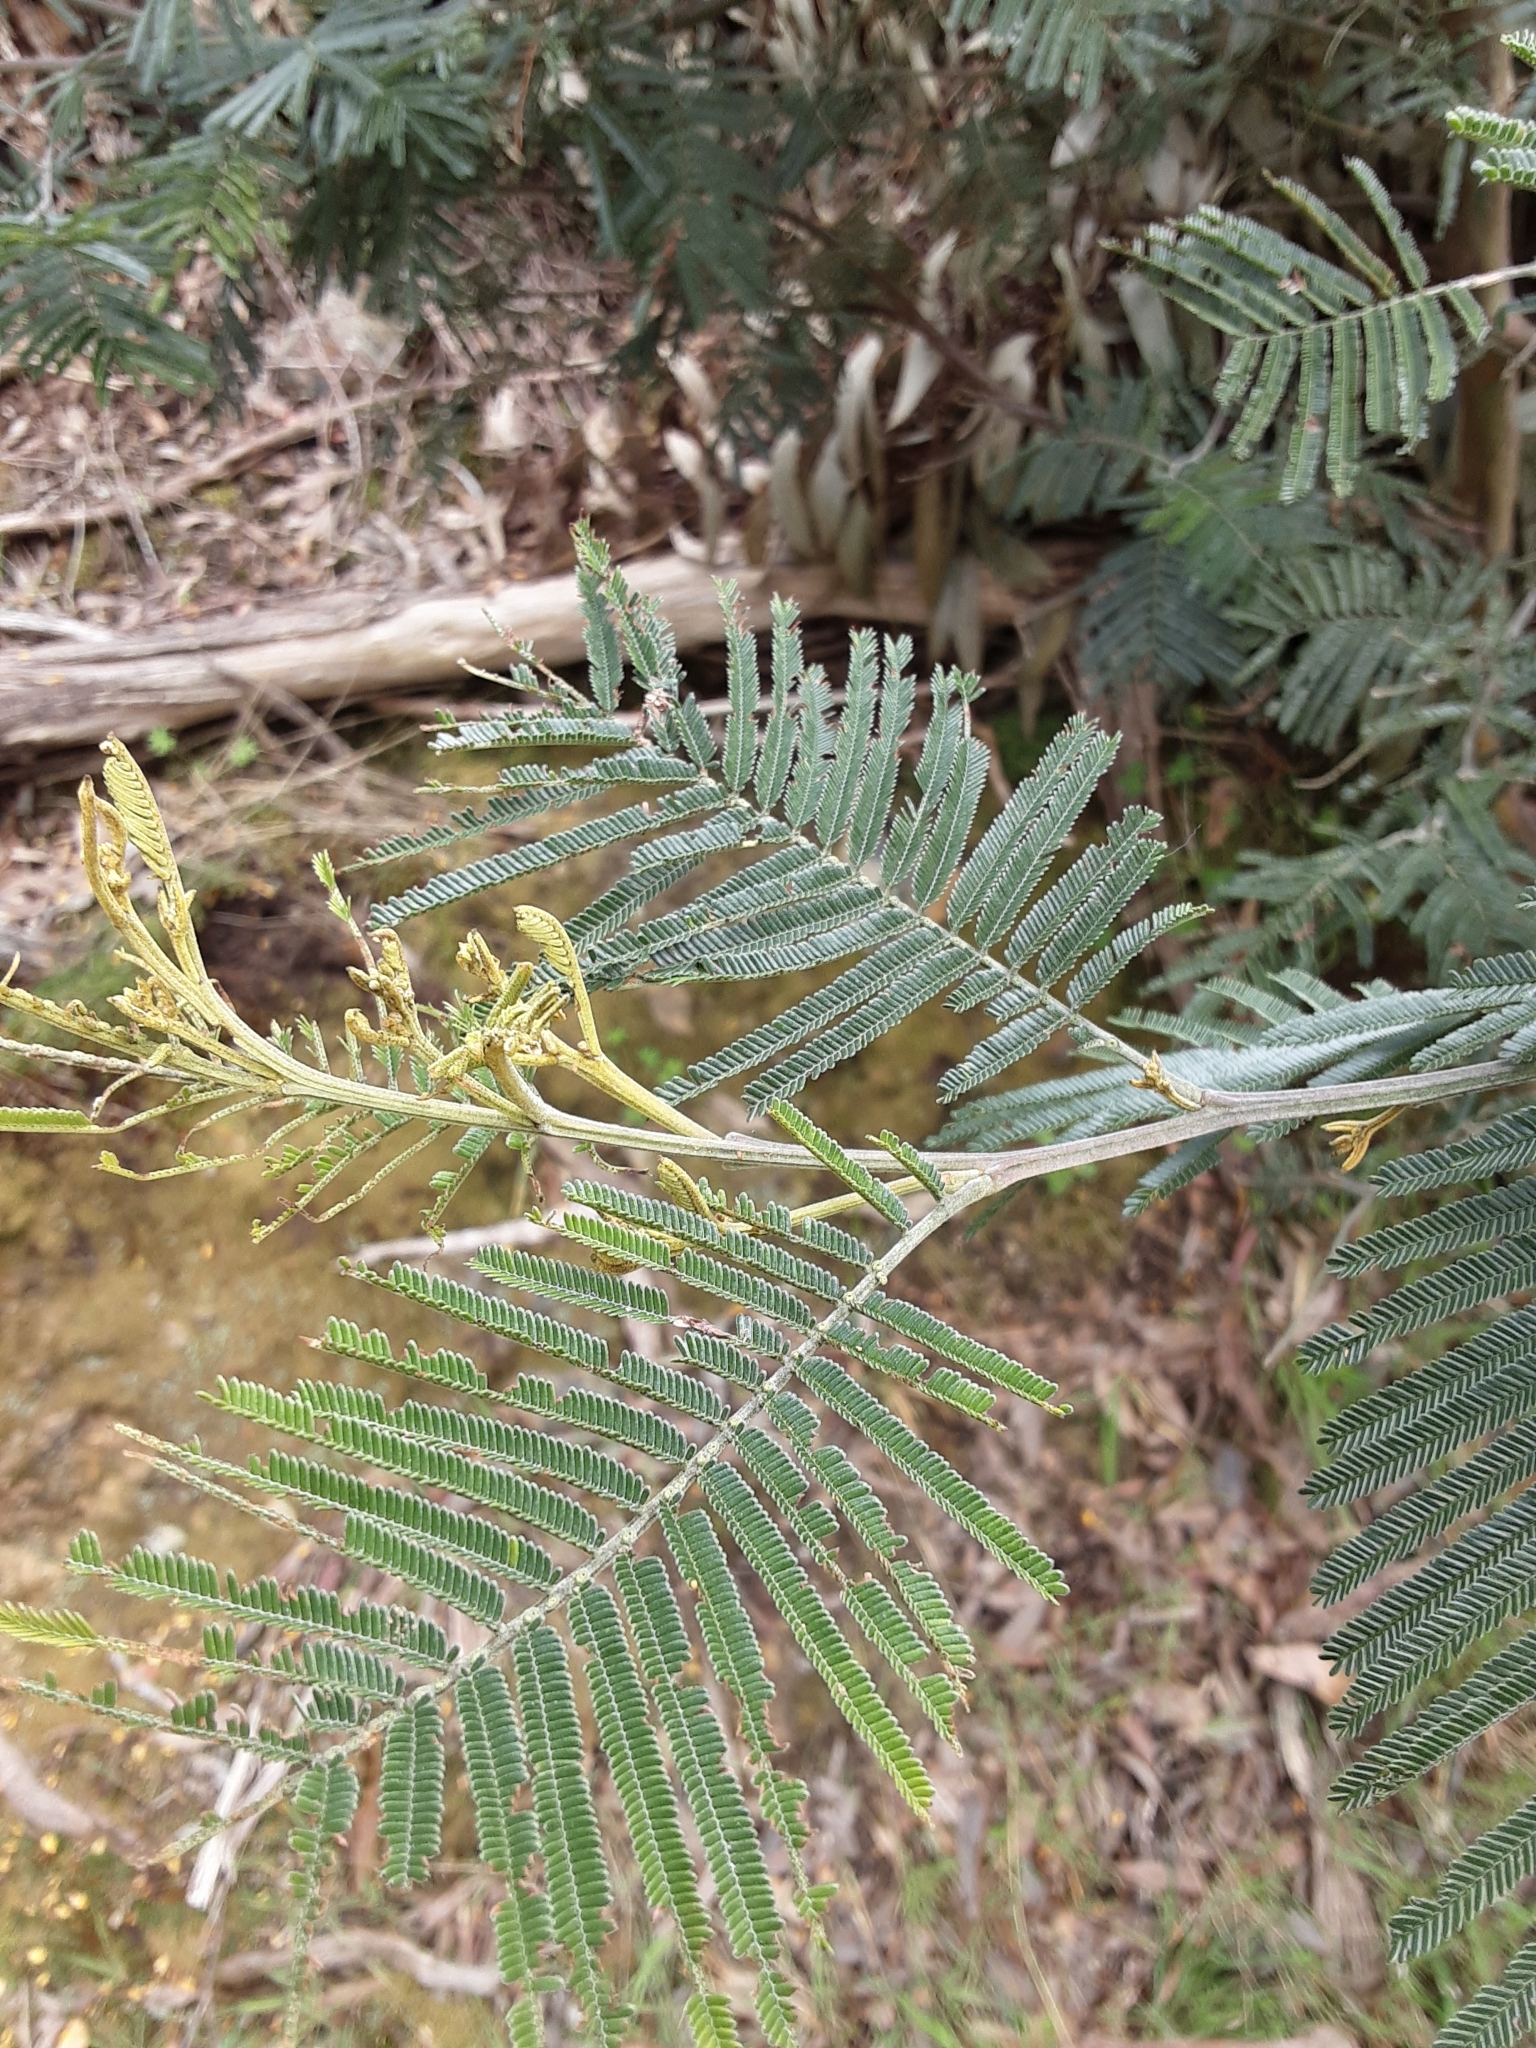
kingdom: Plantae
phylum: Tracheophyta
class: Magnoliopsida
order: Fabales
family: Fabaceae
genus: Acacia
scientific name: Acacia mearnsii
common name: Black wattle
